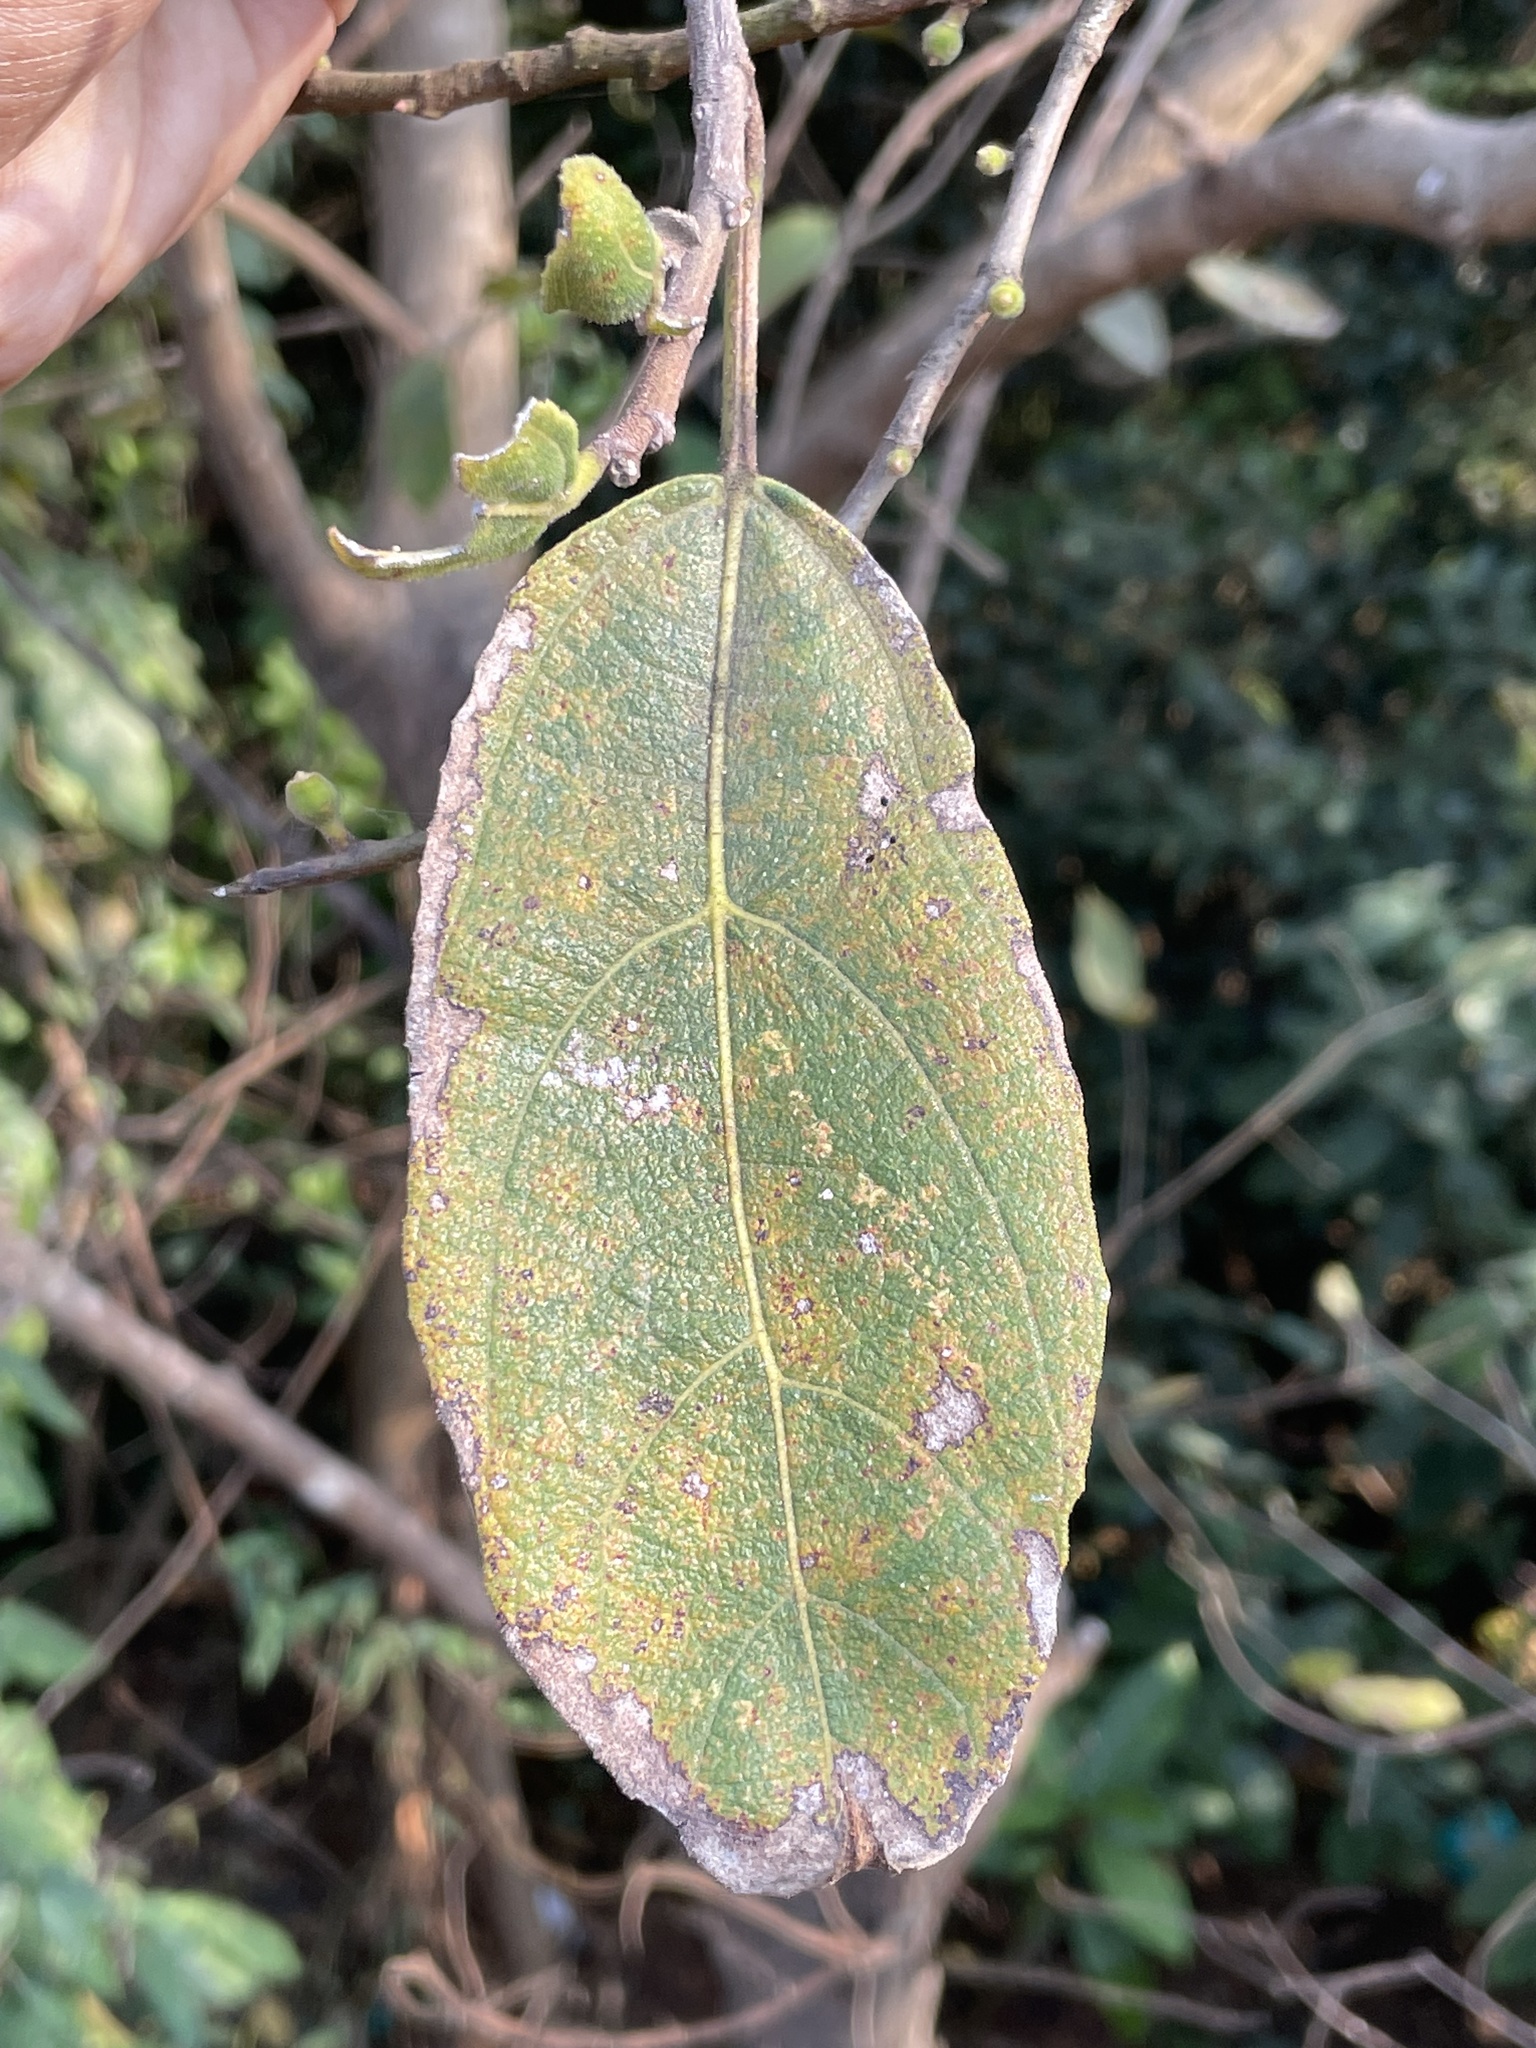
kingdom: Plantae
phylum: Tracheophyta
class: Magnoliopsida
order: Rosales
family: Moraceae
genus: Ficus
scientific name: Ficus exasperata
